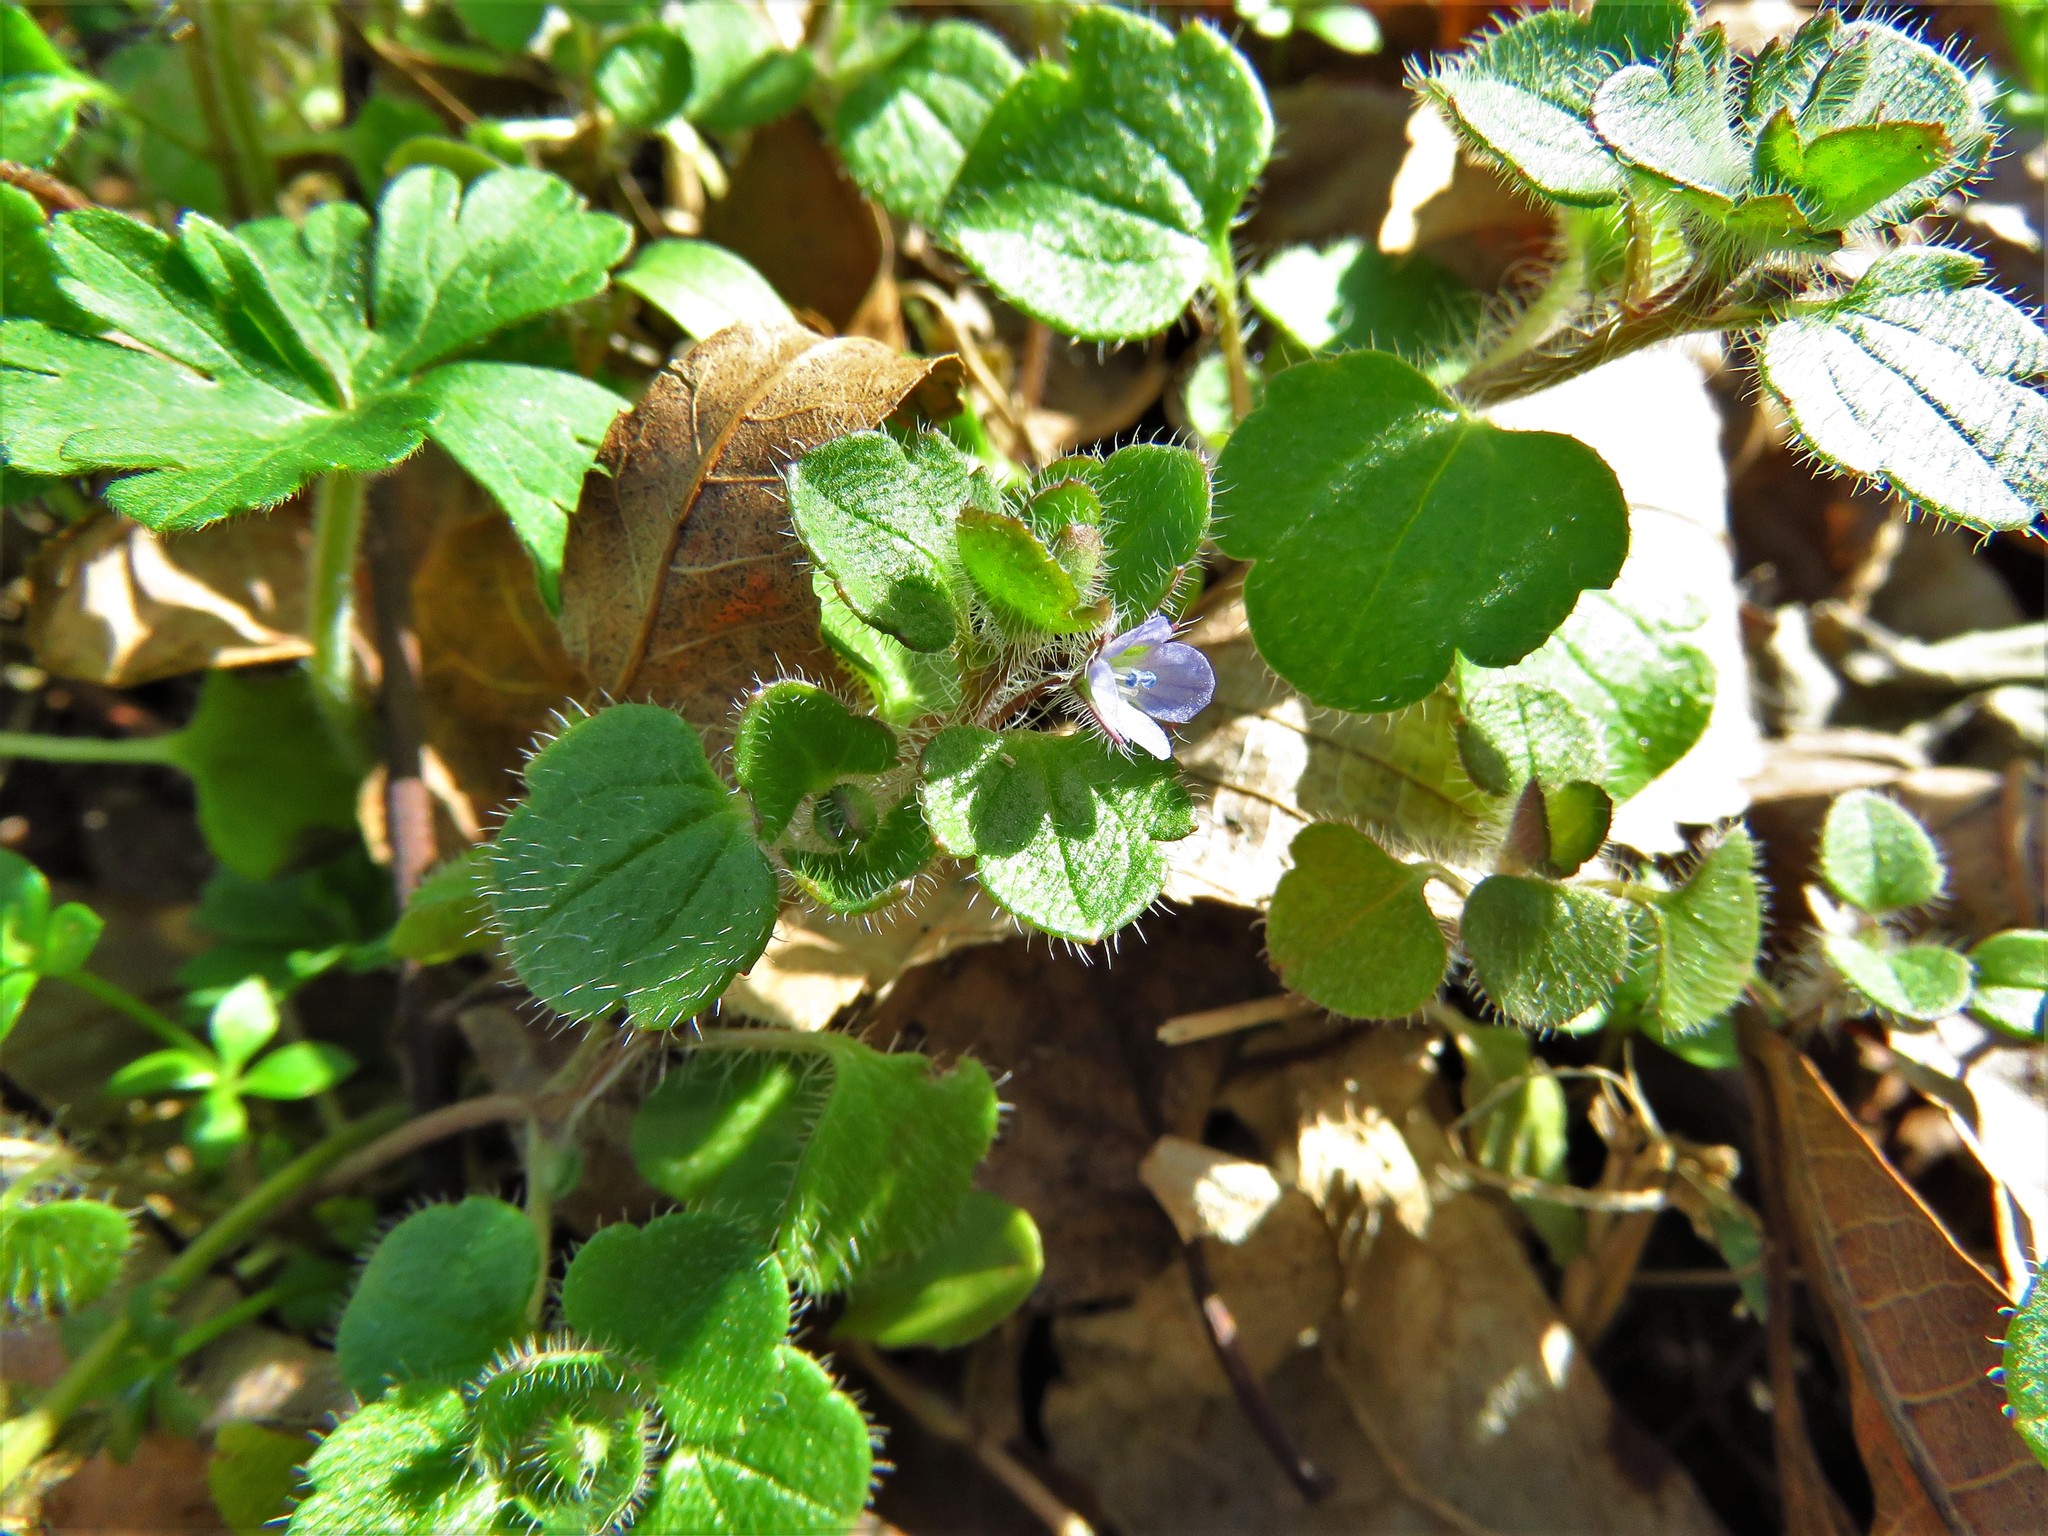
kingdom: Plantae
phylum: Tracheophyta
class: Magnoliopsida
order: Lamiales
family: Plantaginaceae
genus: Veronica
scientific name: Veronica hederifolia
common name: Ivy-leaved speedwell
